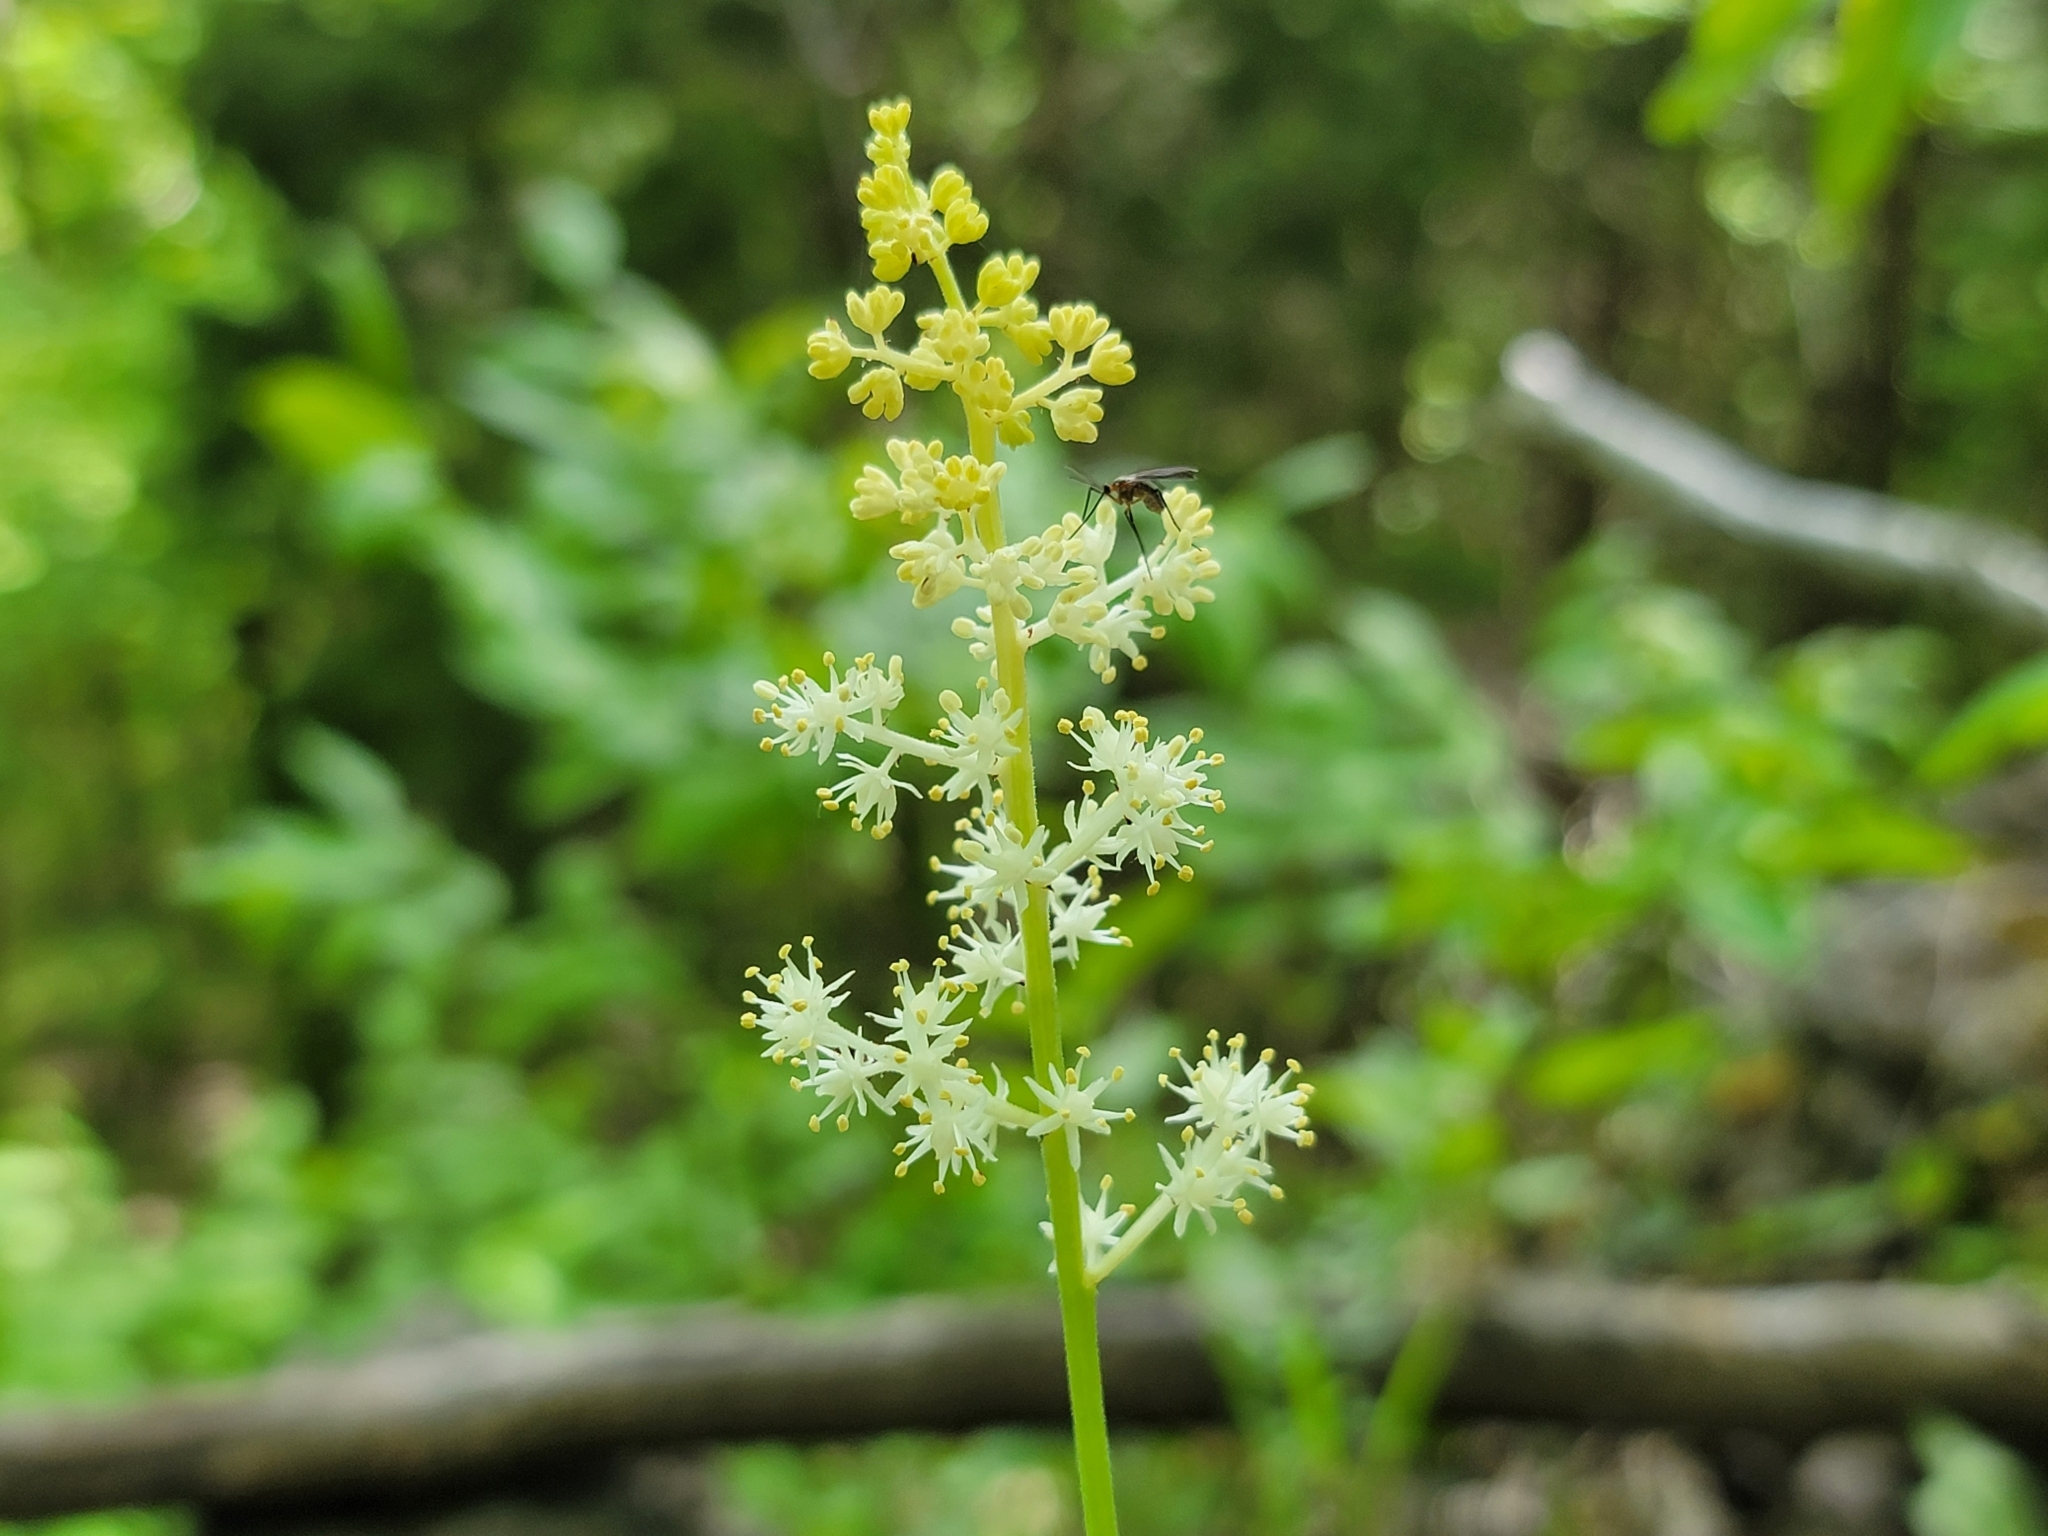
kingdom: Plantae
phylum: Tracheophyta
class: Liliopsida
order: Asparagales
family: Asparagaceae
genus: Maianthemum
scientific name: Maianthemum racemosum
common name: False spikenard
